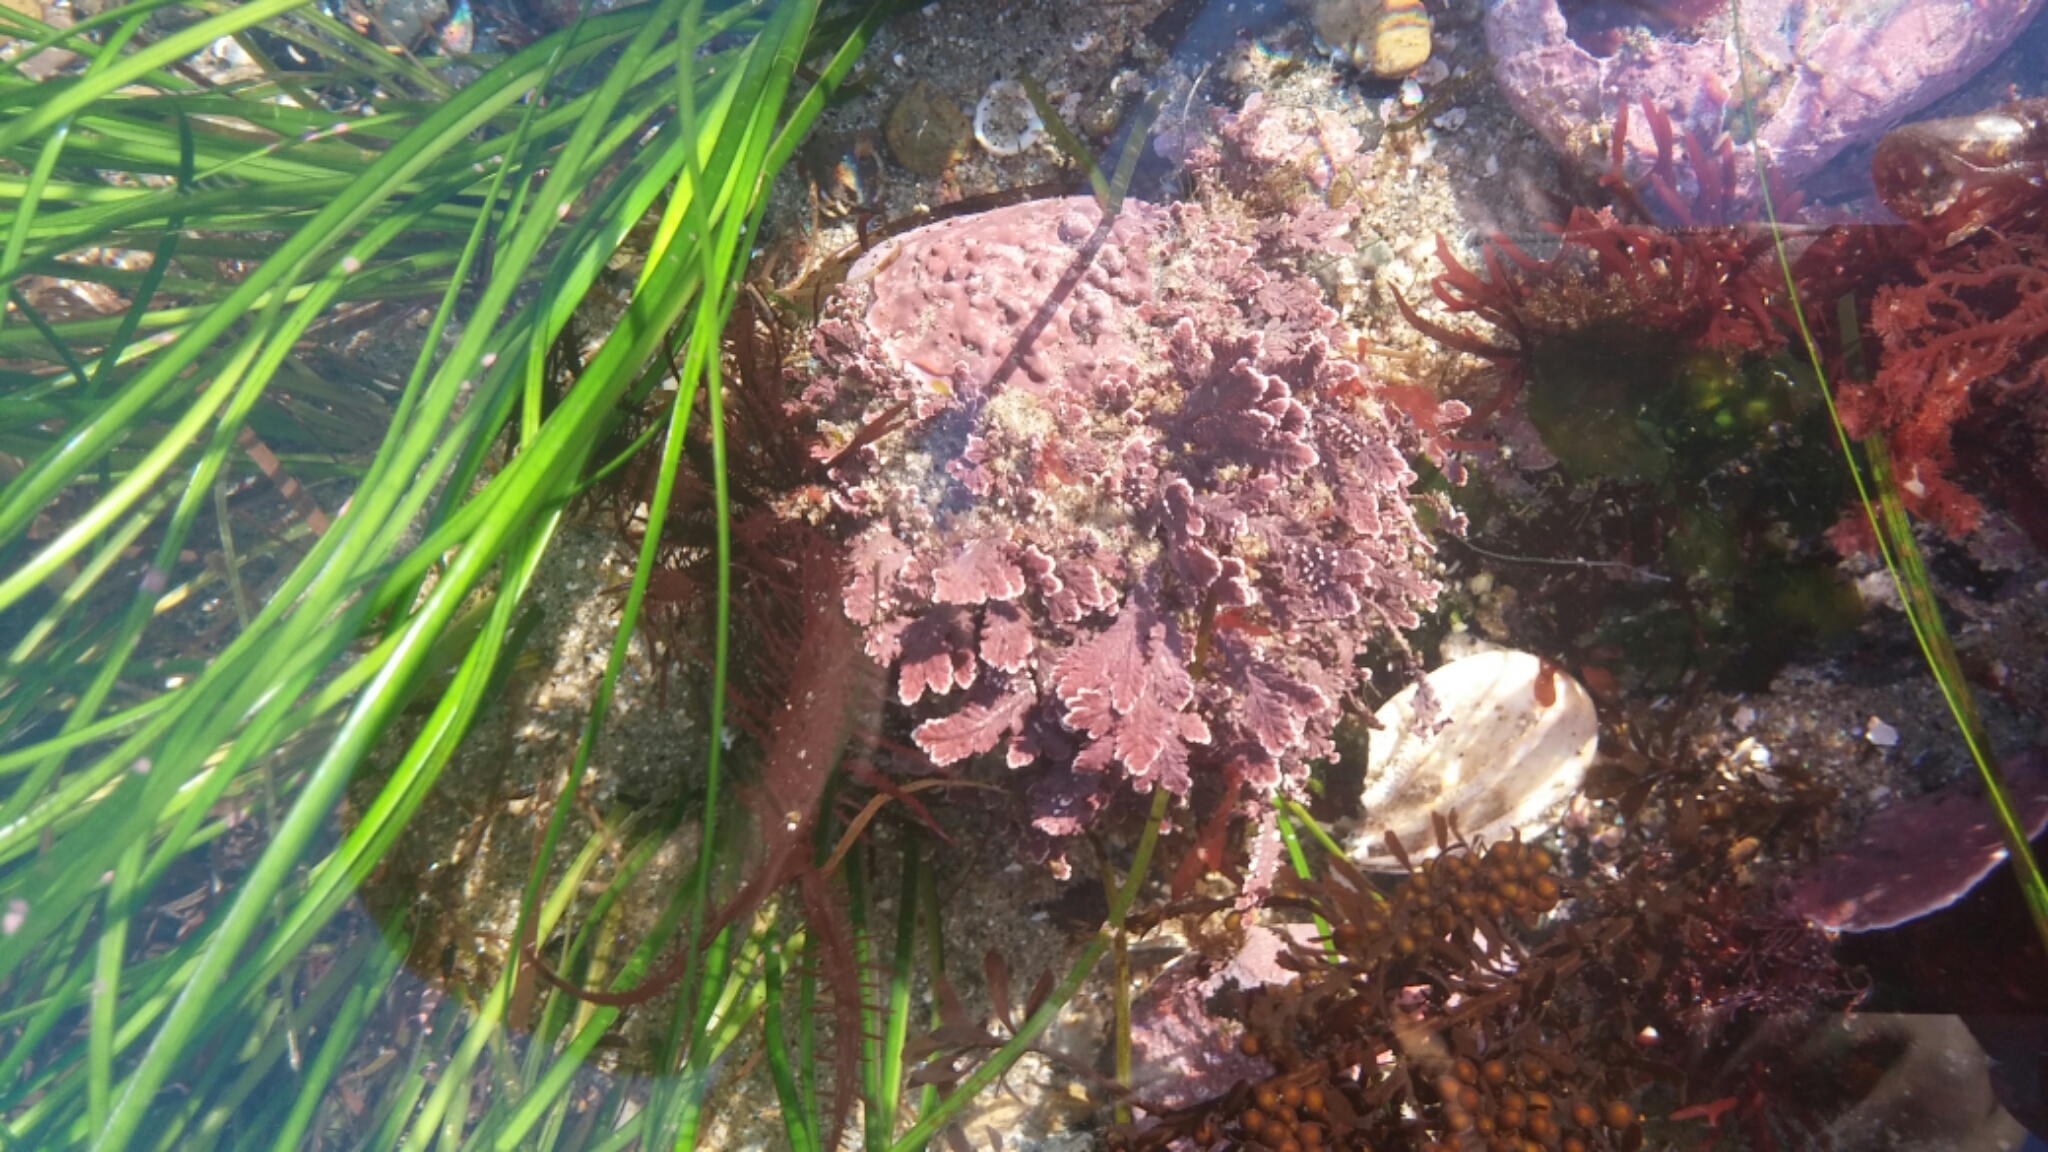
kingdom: Plantae
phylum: Rhodophyta
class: Florideophyceae
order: Corallinales
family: Corallinaceae
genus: Corallina
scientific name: Corallina pinnatifolia
